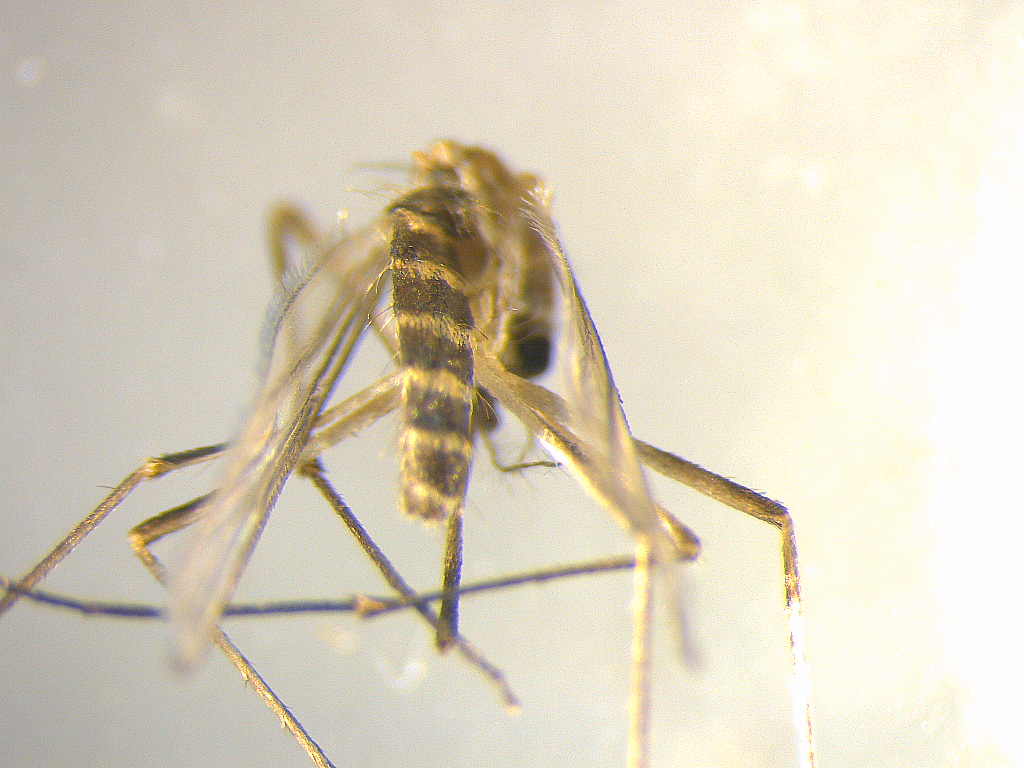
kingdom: Animalia
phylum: Arthropoda
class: Insecta
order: Diptera
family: Culicidae
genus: Culex
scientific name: Culex quinquefasciatus
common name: Southern house mosquito
